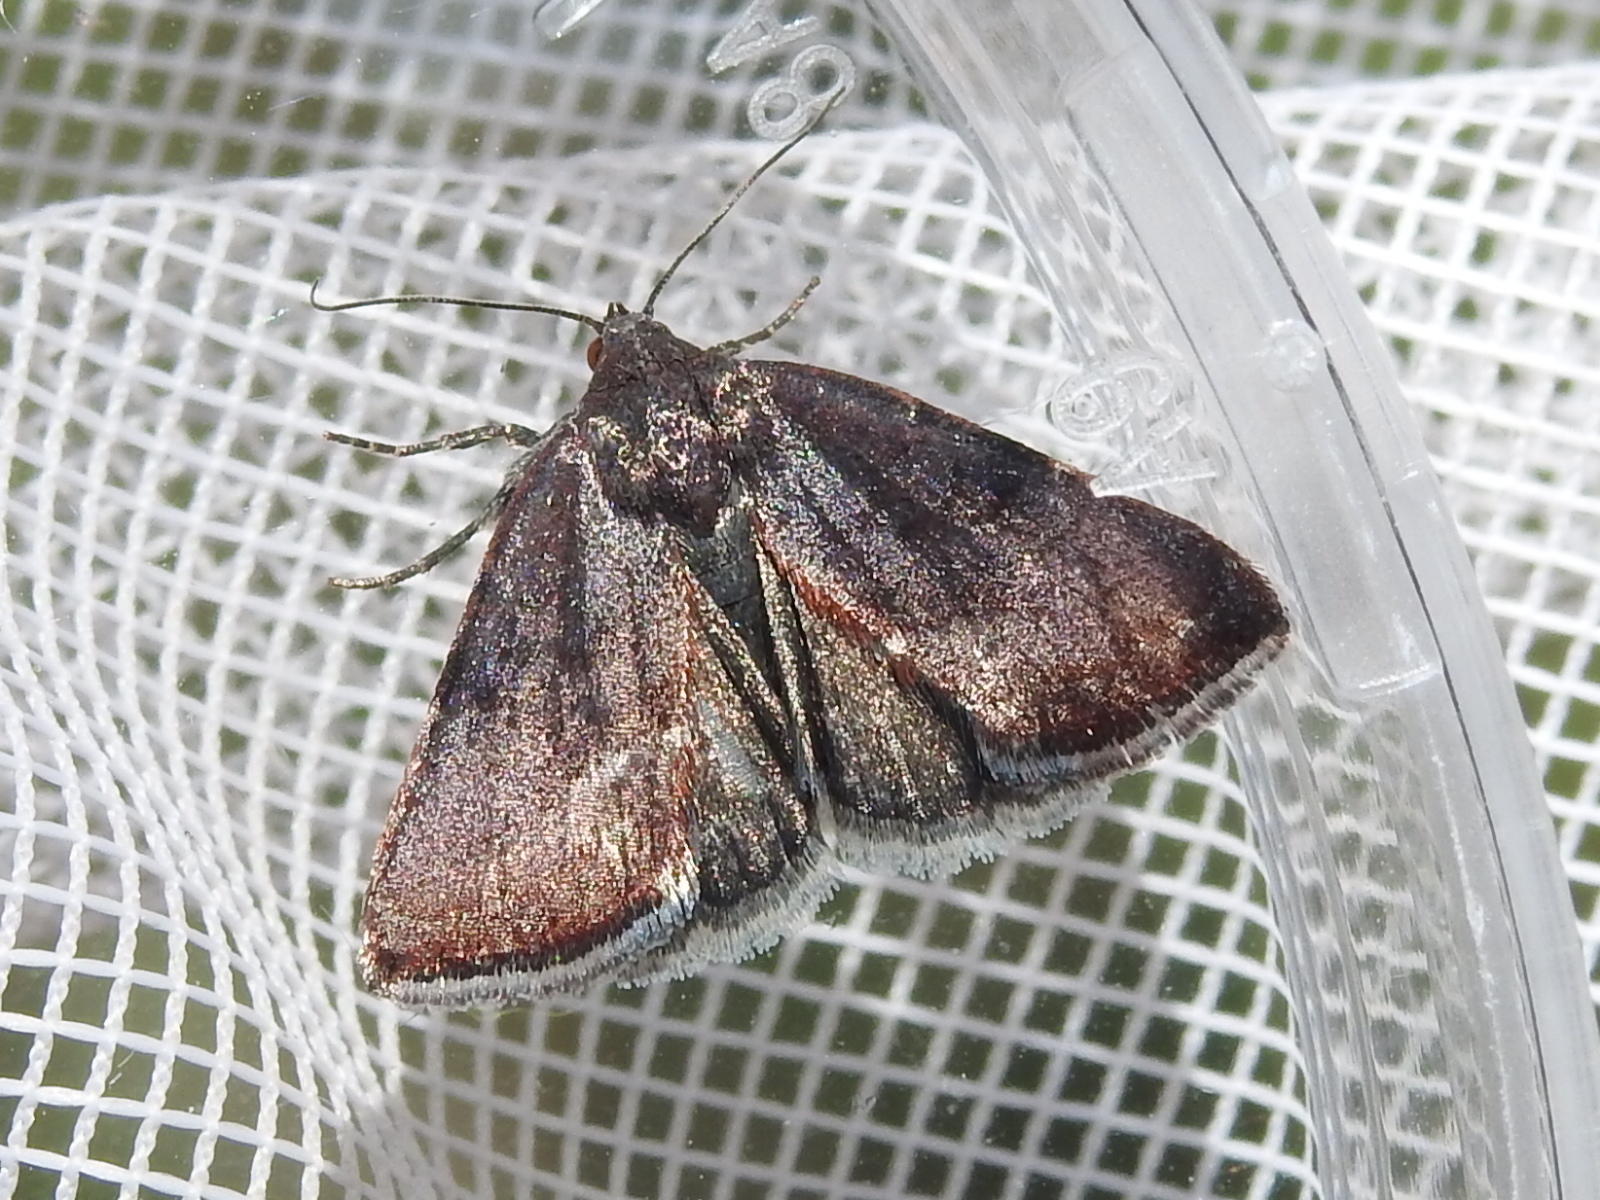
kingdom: Animalia
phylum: Arthropoda
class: Insecta
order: Lepidoptera
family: Noctuidae
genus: Galgula
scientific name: Galgula partita
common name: Wedgeling
